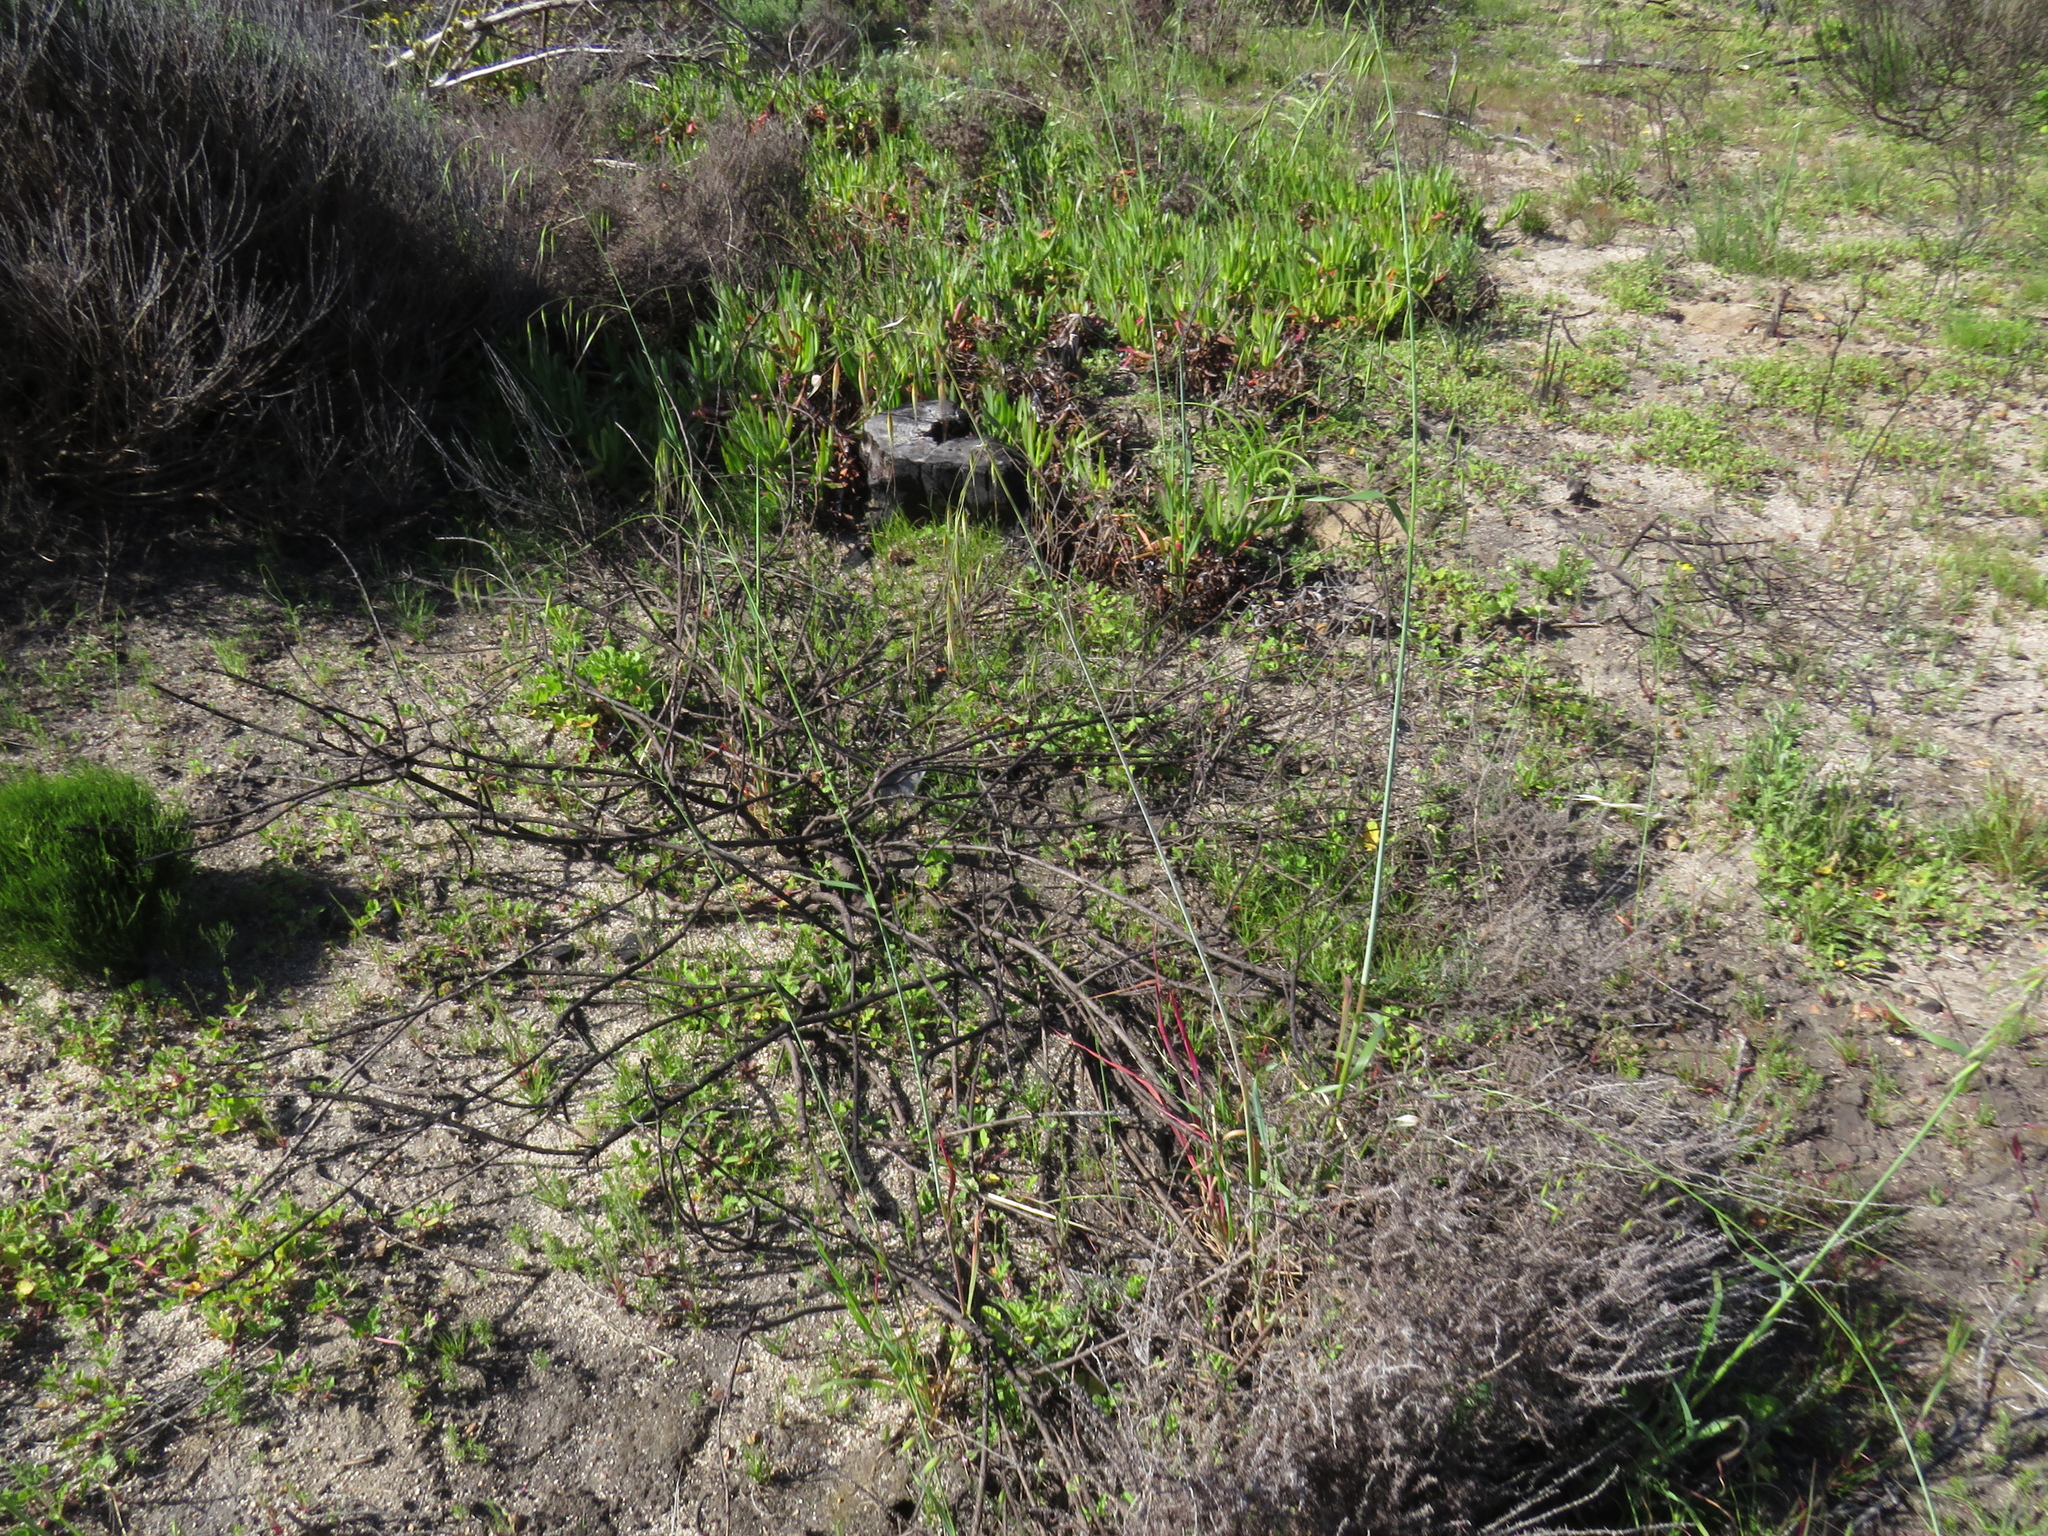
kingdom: Plantae
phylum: Tracheophyta
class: Liliopsida
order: Poales
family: Poaceae
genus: Avena
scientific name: Avena fatua
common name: Wild oat
